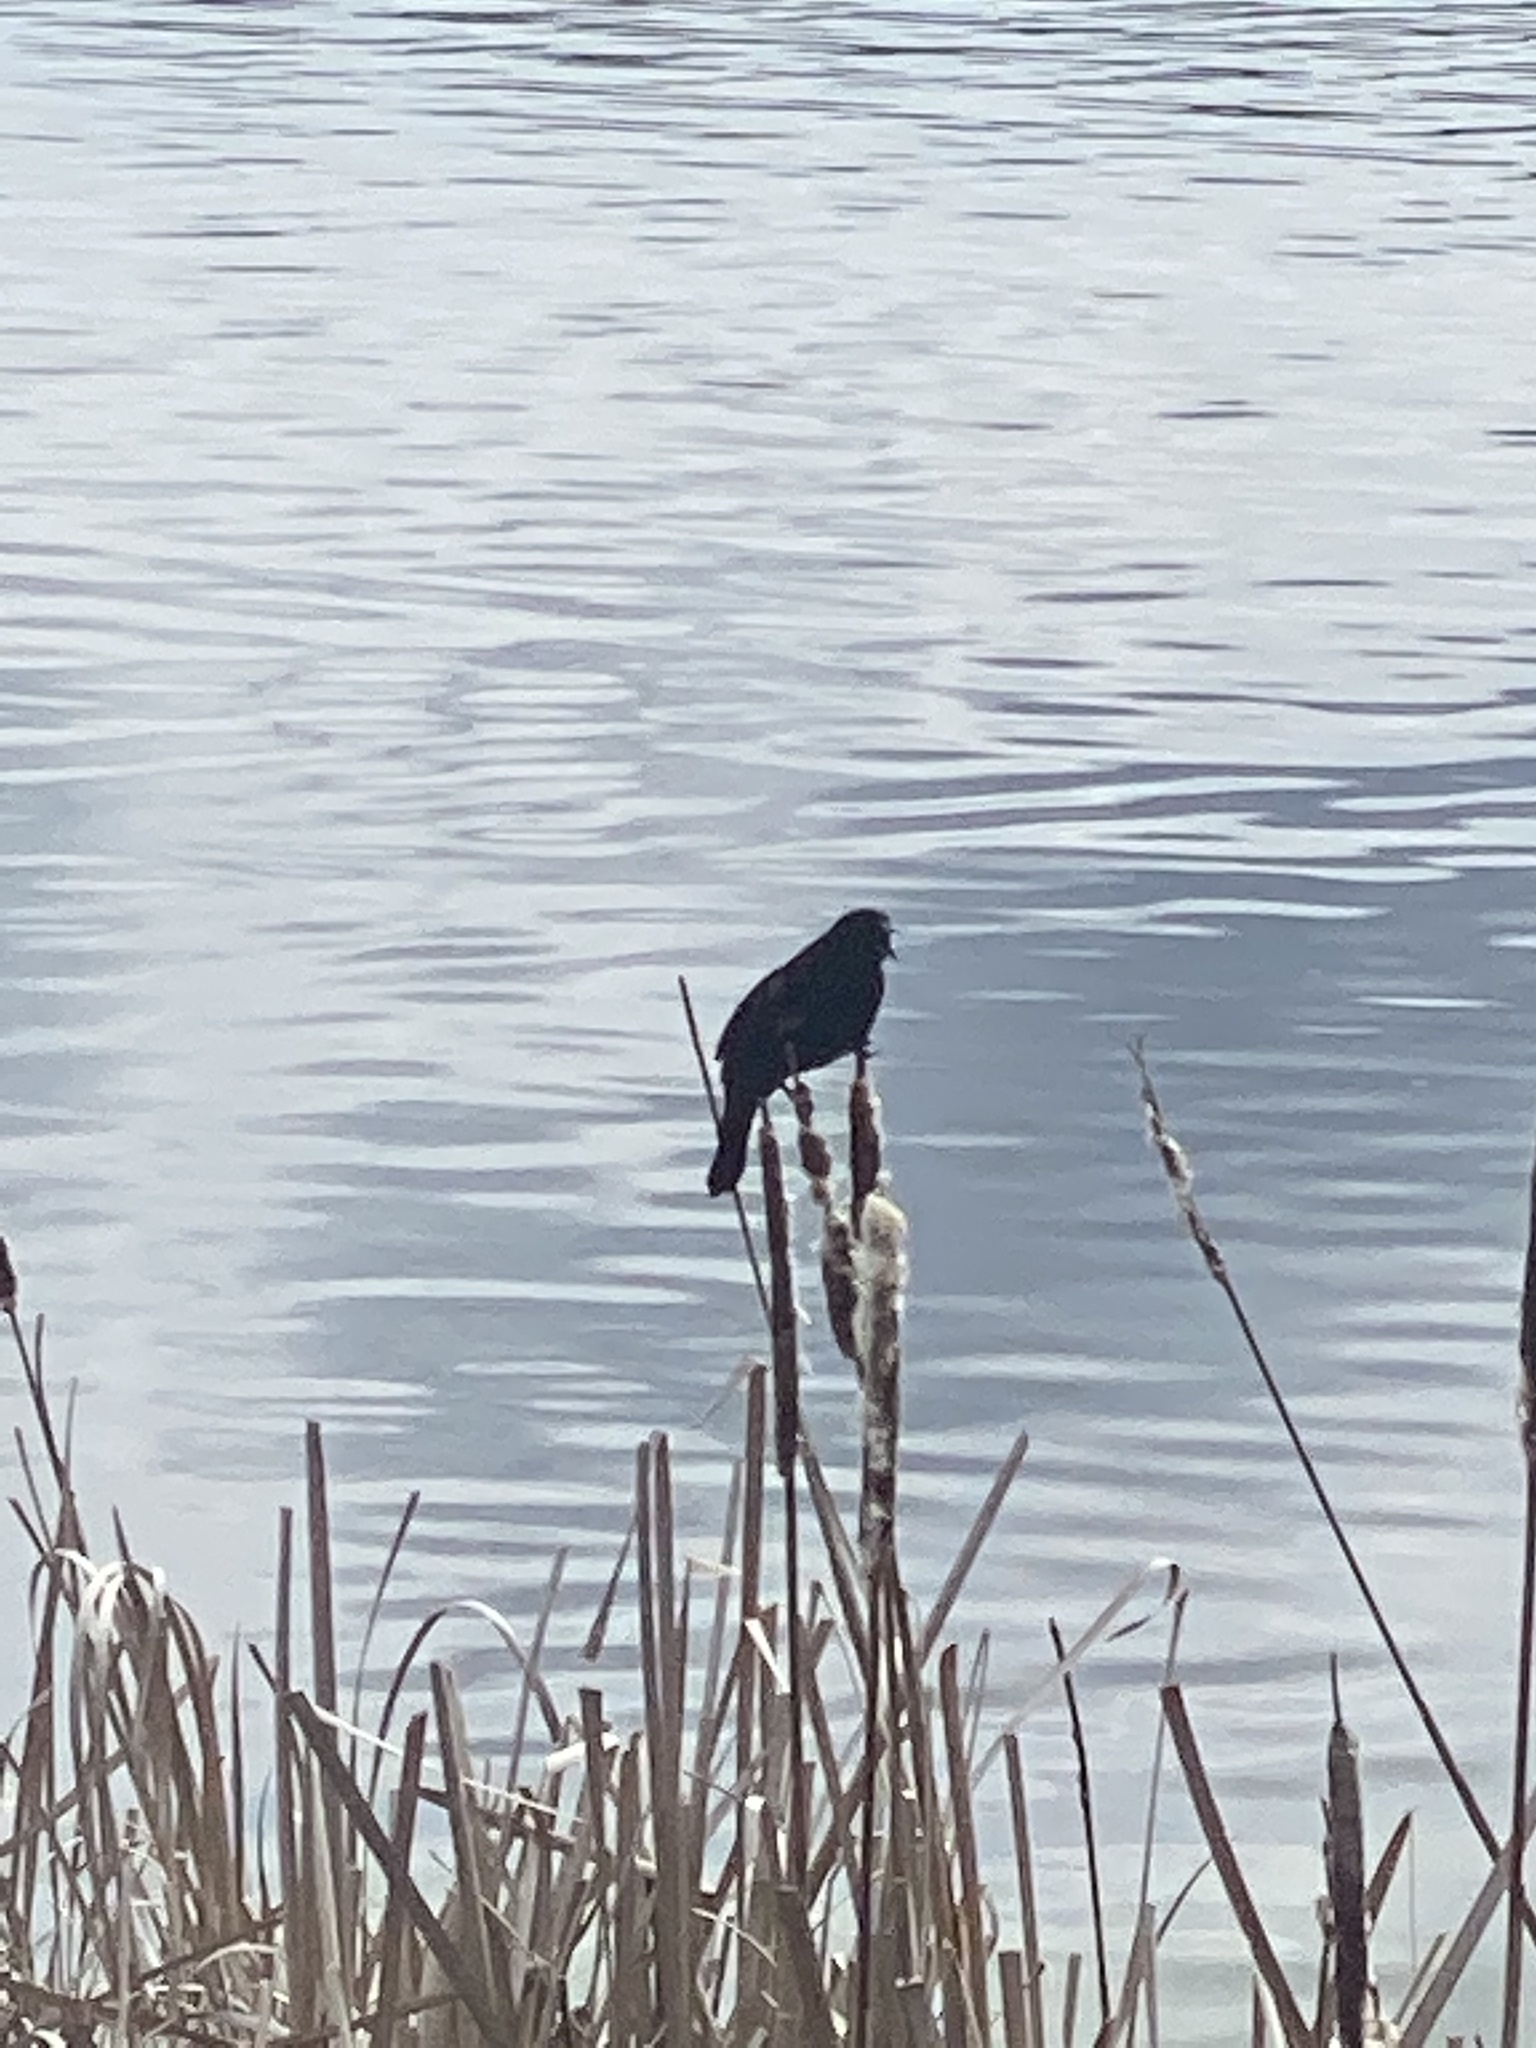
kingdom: Animalia
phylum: Chordata
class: Aves
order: Passeriformes
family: Icteridae
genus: Agelaius
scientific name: Agelaius phoeniceus
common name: Red-winged blackbird
